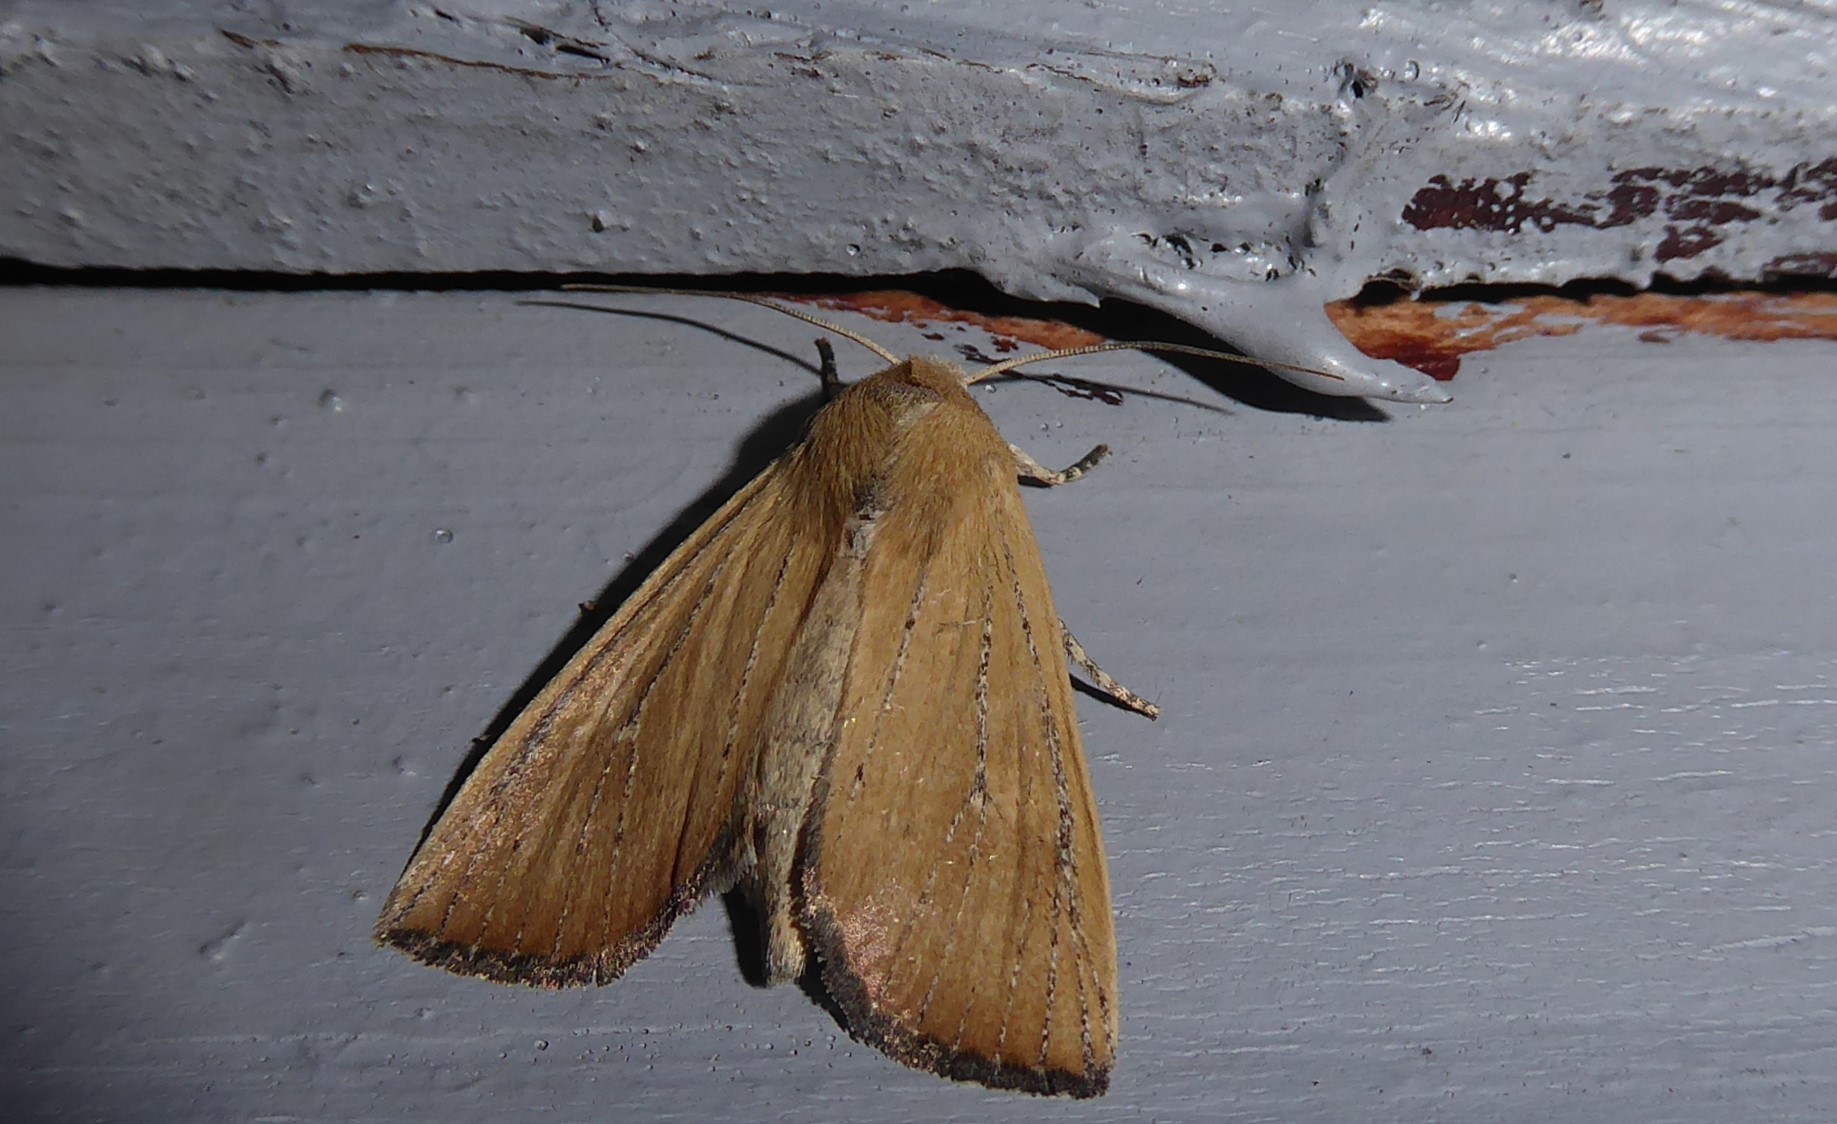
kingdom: Animalia
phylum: Arthropoda
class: Insecta
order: Lepidoptera
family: Noctuidae
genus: Ichneutica
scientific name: Ichneutica blenheimensis
